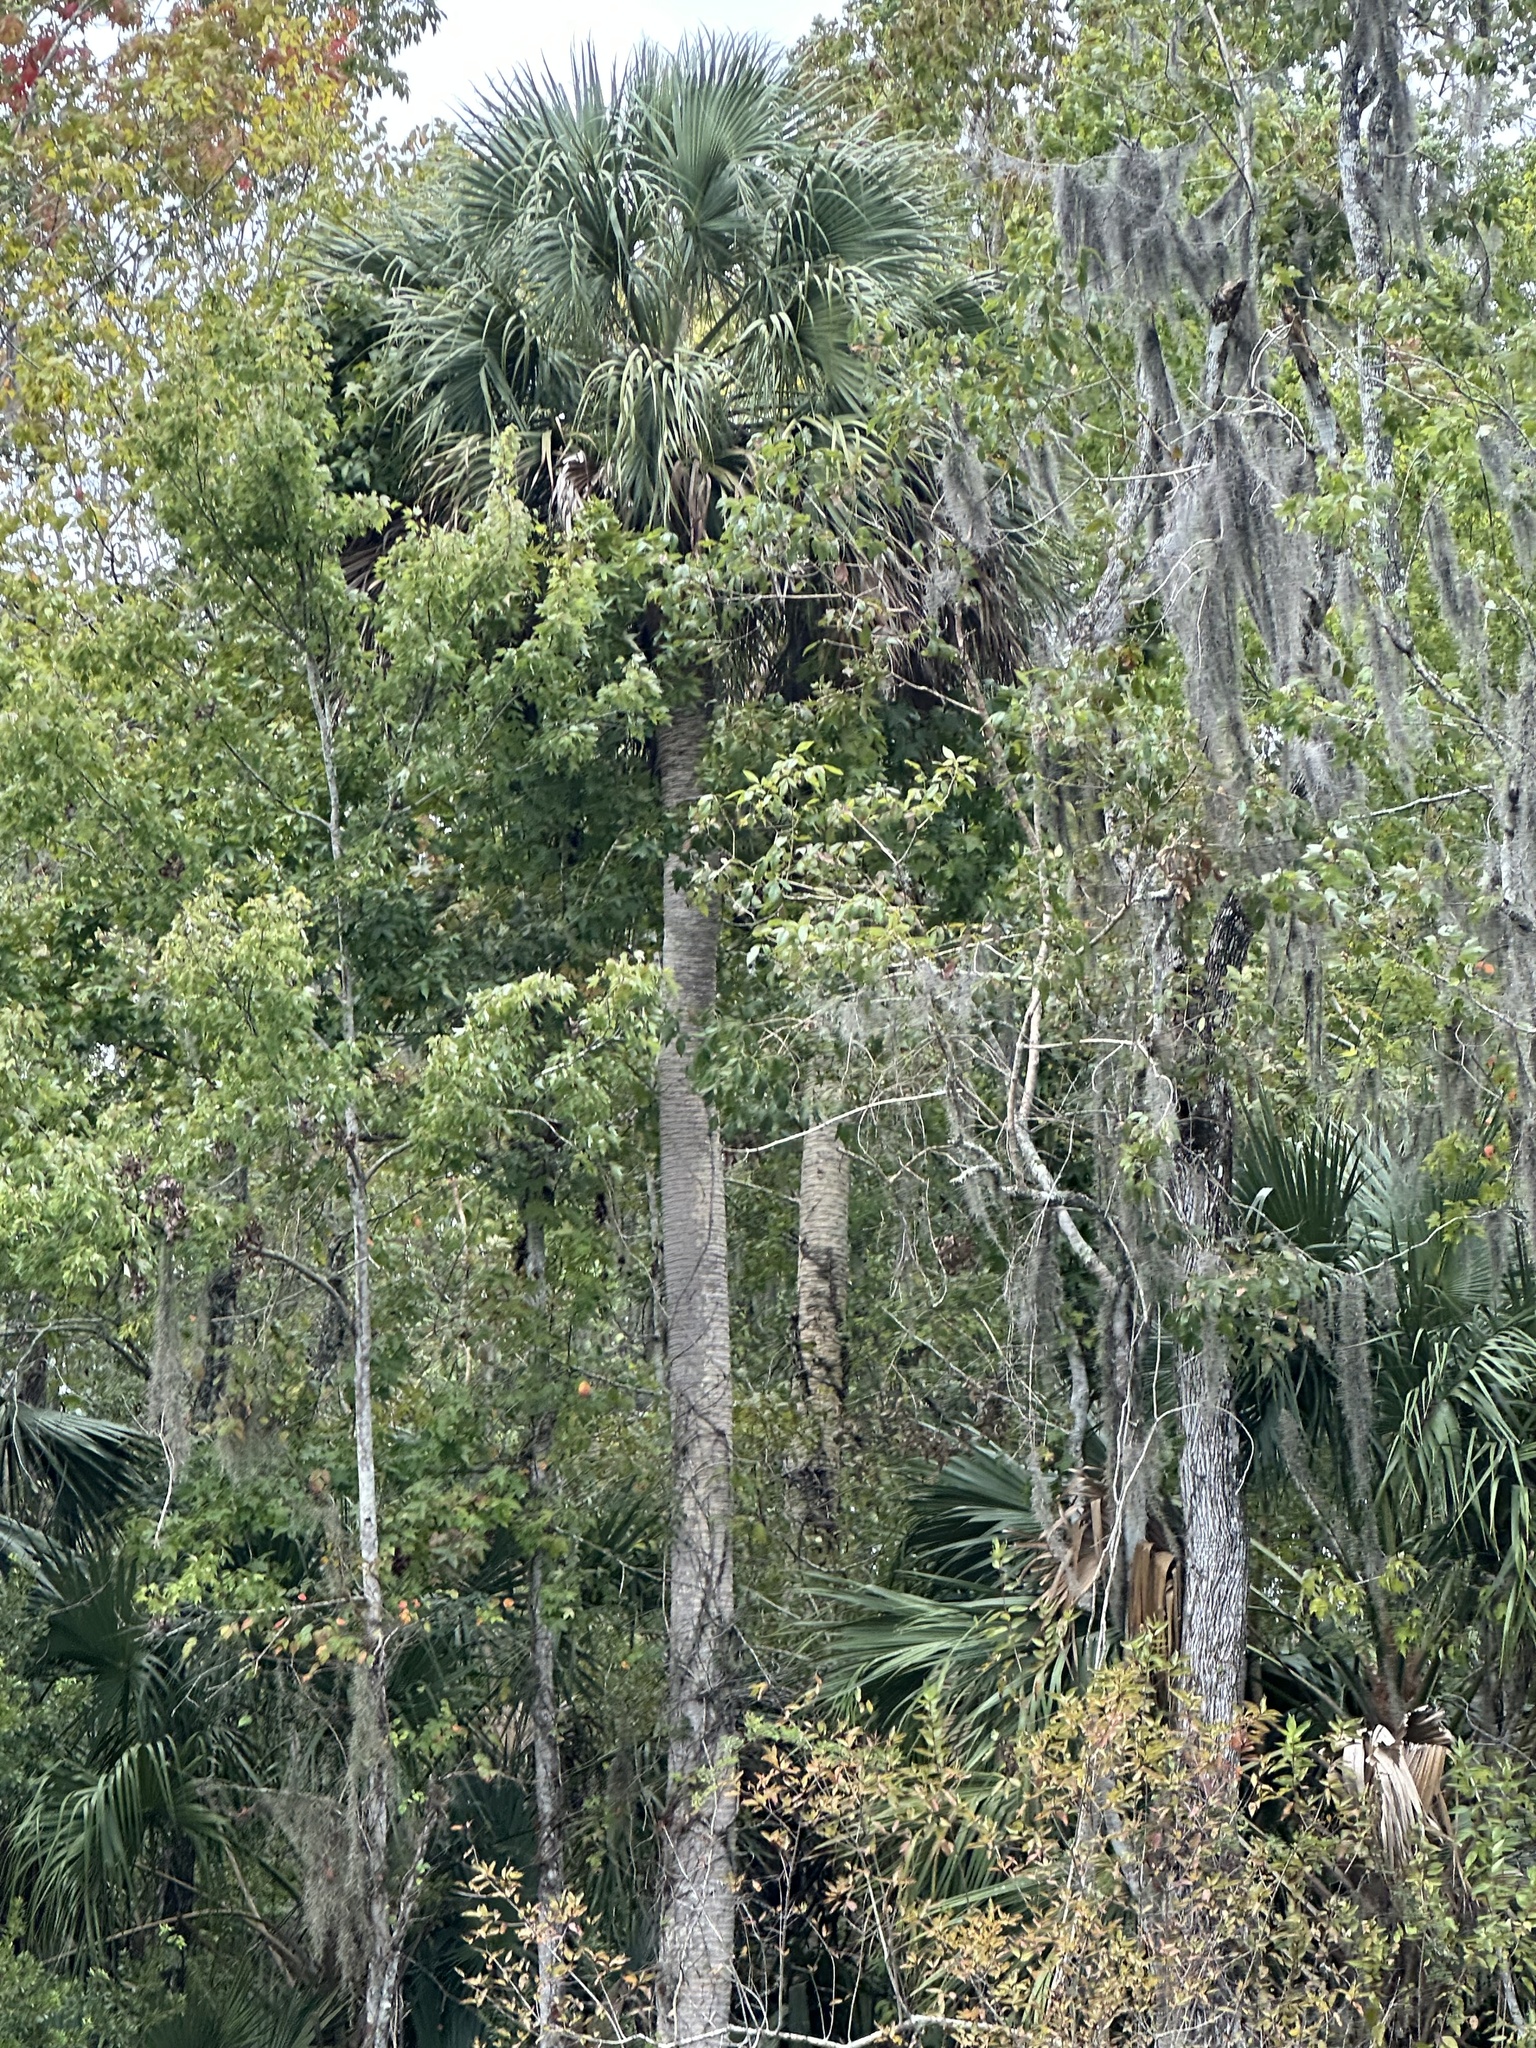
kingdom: Plantae
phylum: Tracheophyta
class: Liliopsida
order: Arecales
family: Arecaceae
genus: Sabal
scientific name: Sabal palmetto
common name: Blue palmetto
